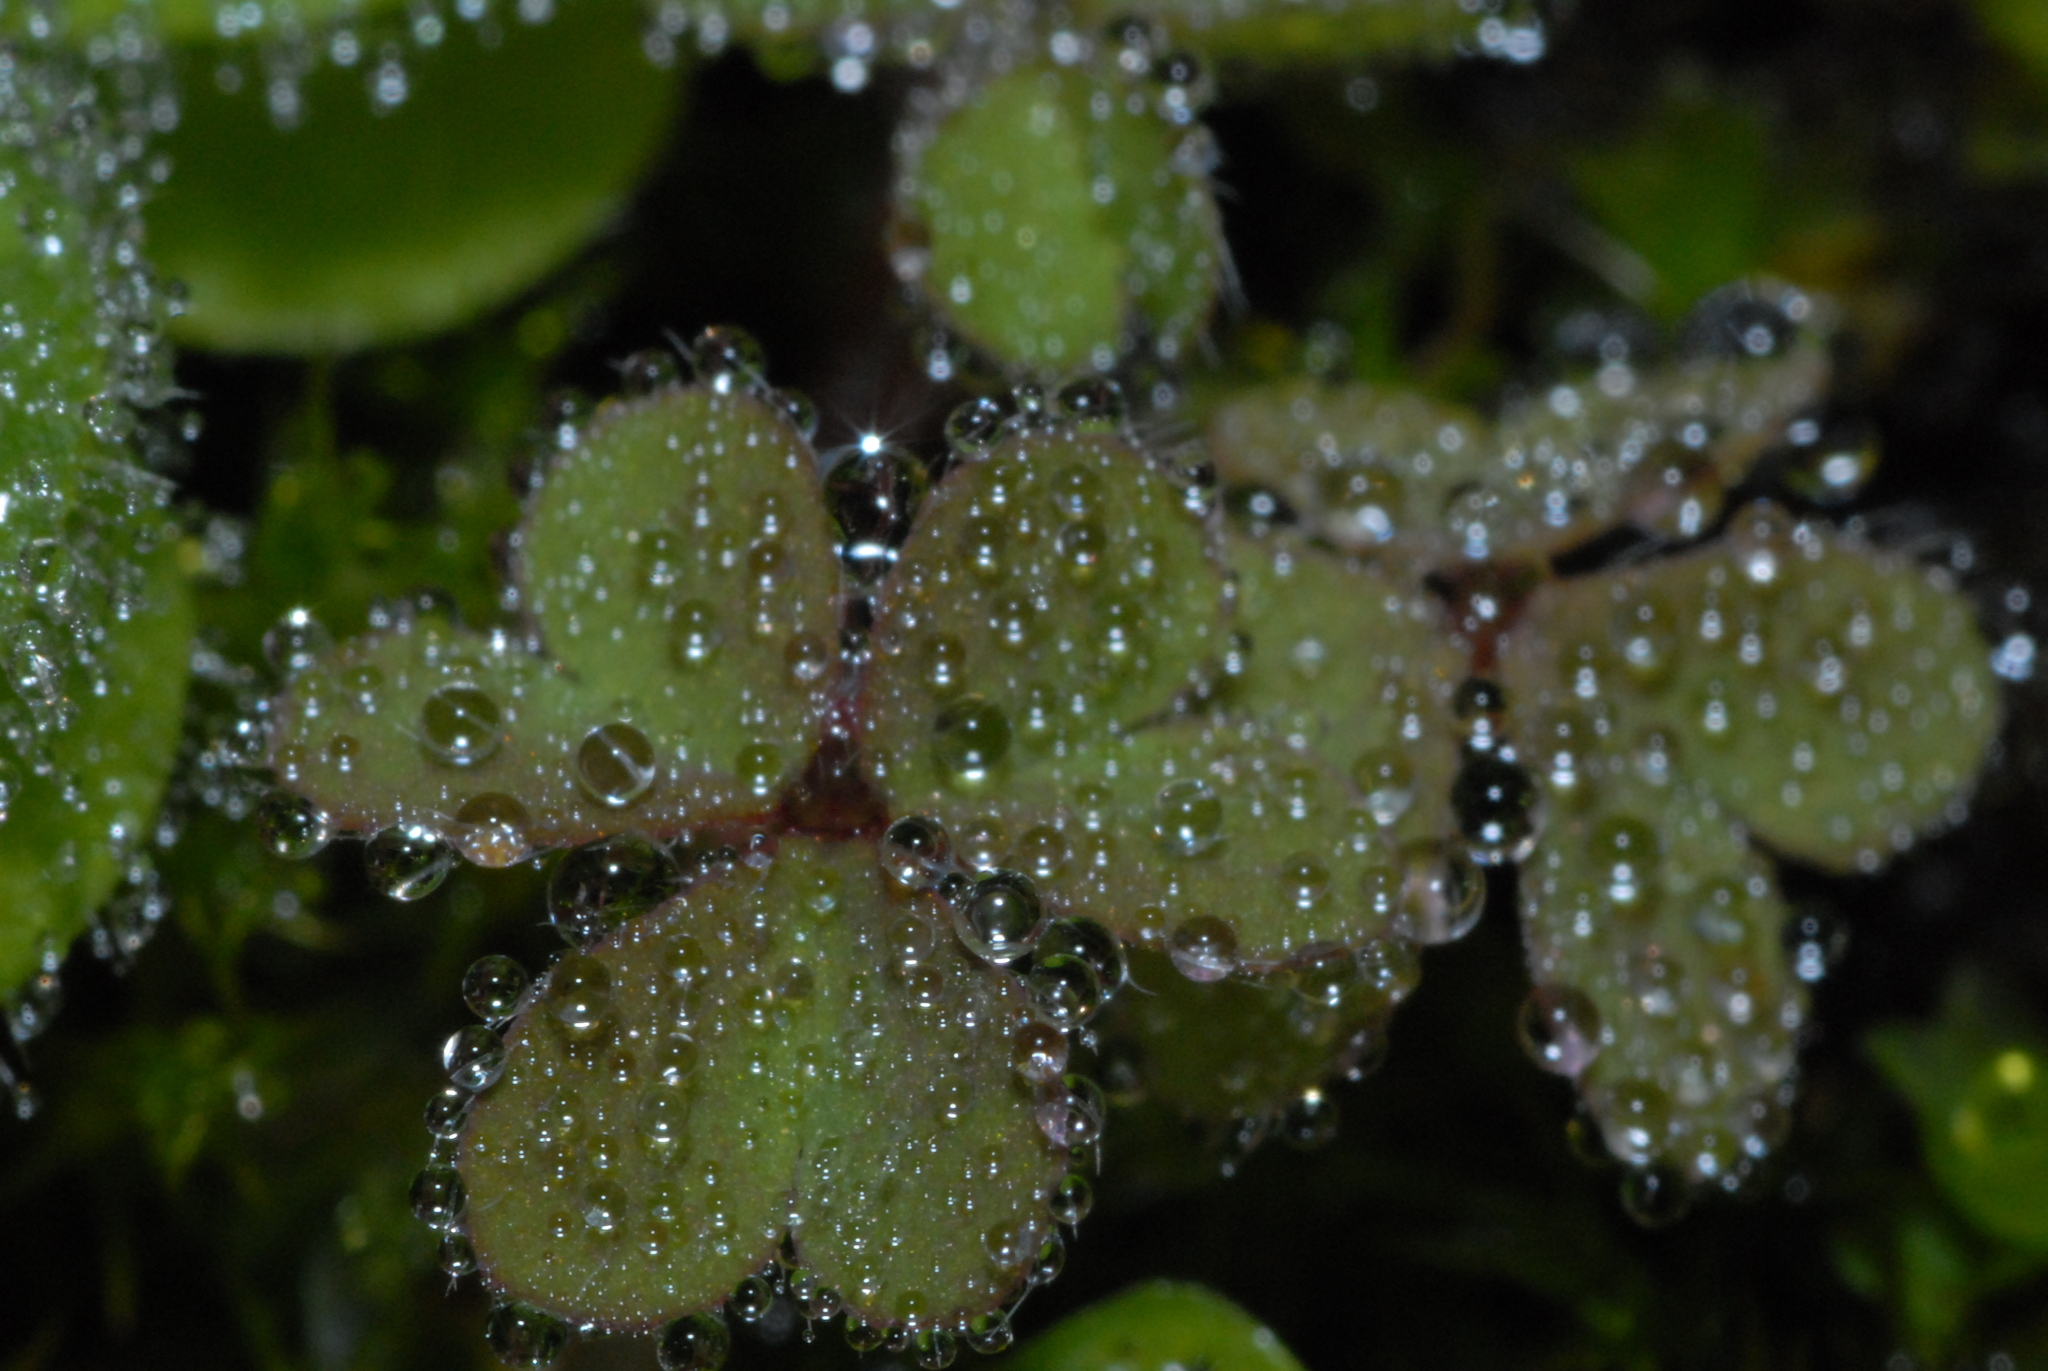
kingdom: Plantae
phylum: Tracheophyta
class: Magnoliopsida
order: Oxalidales
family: Oxalidaceae
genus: Oxalis
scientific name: Oxalis corniculata
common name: Procumbent yellow-sorrel
